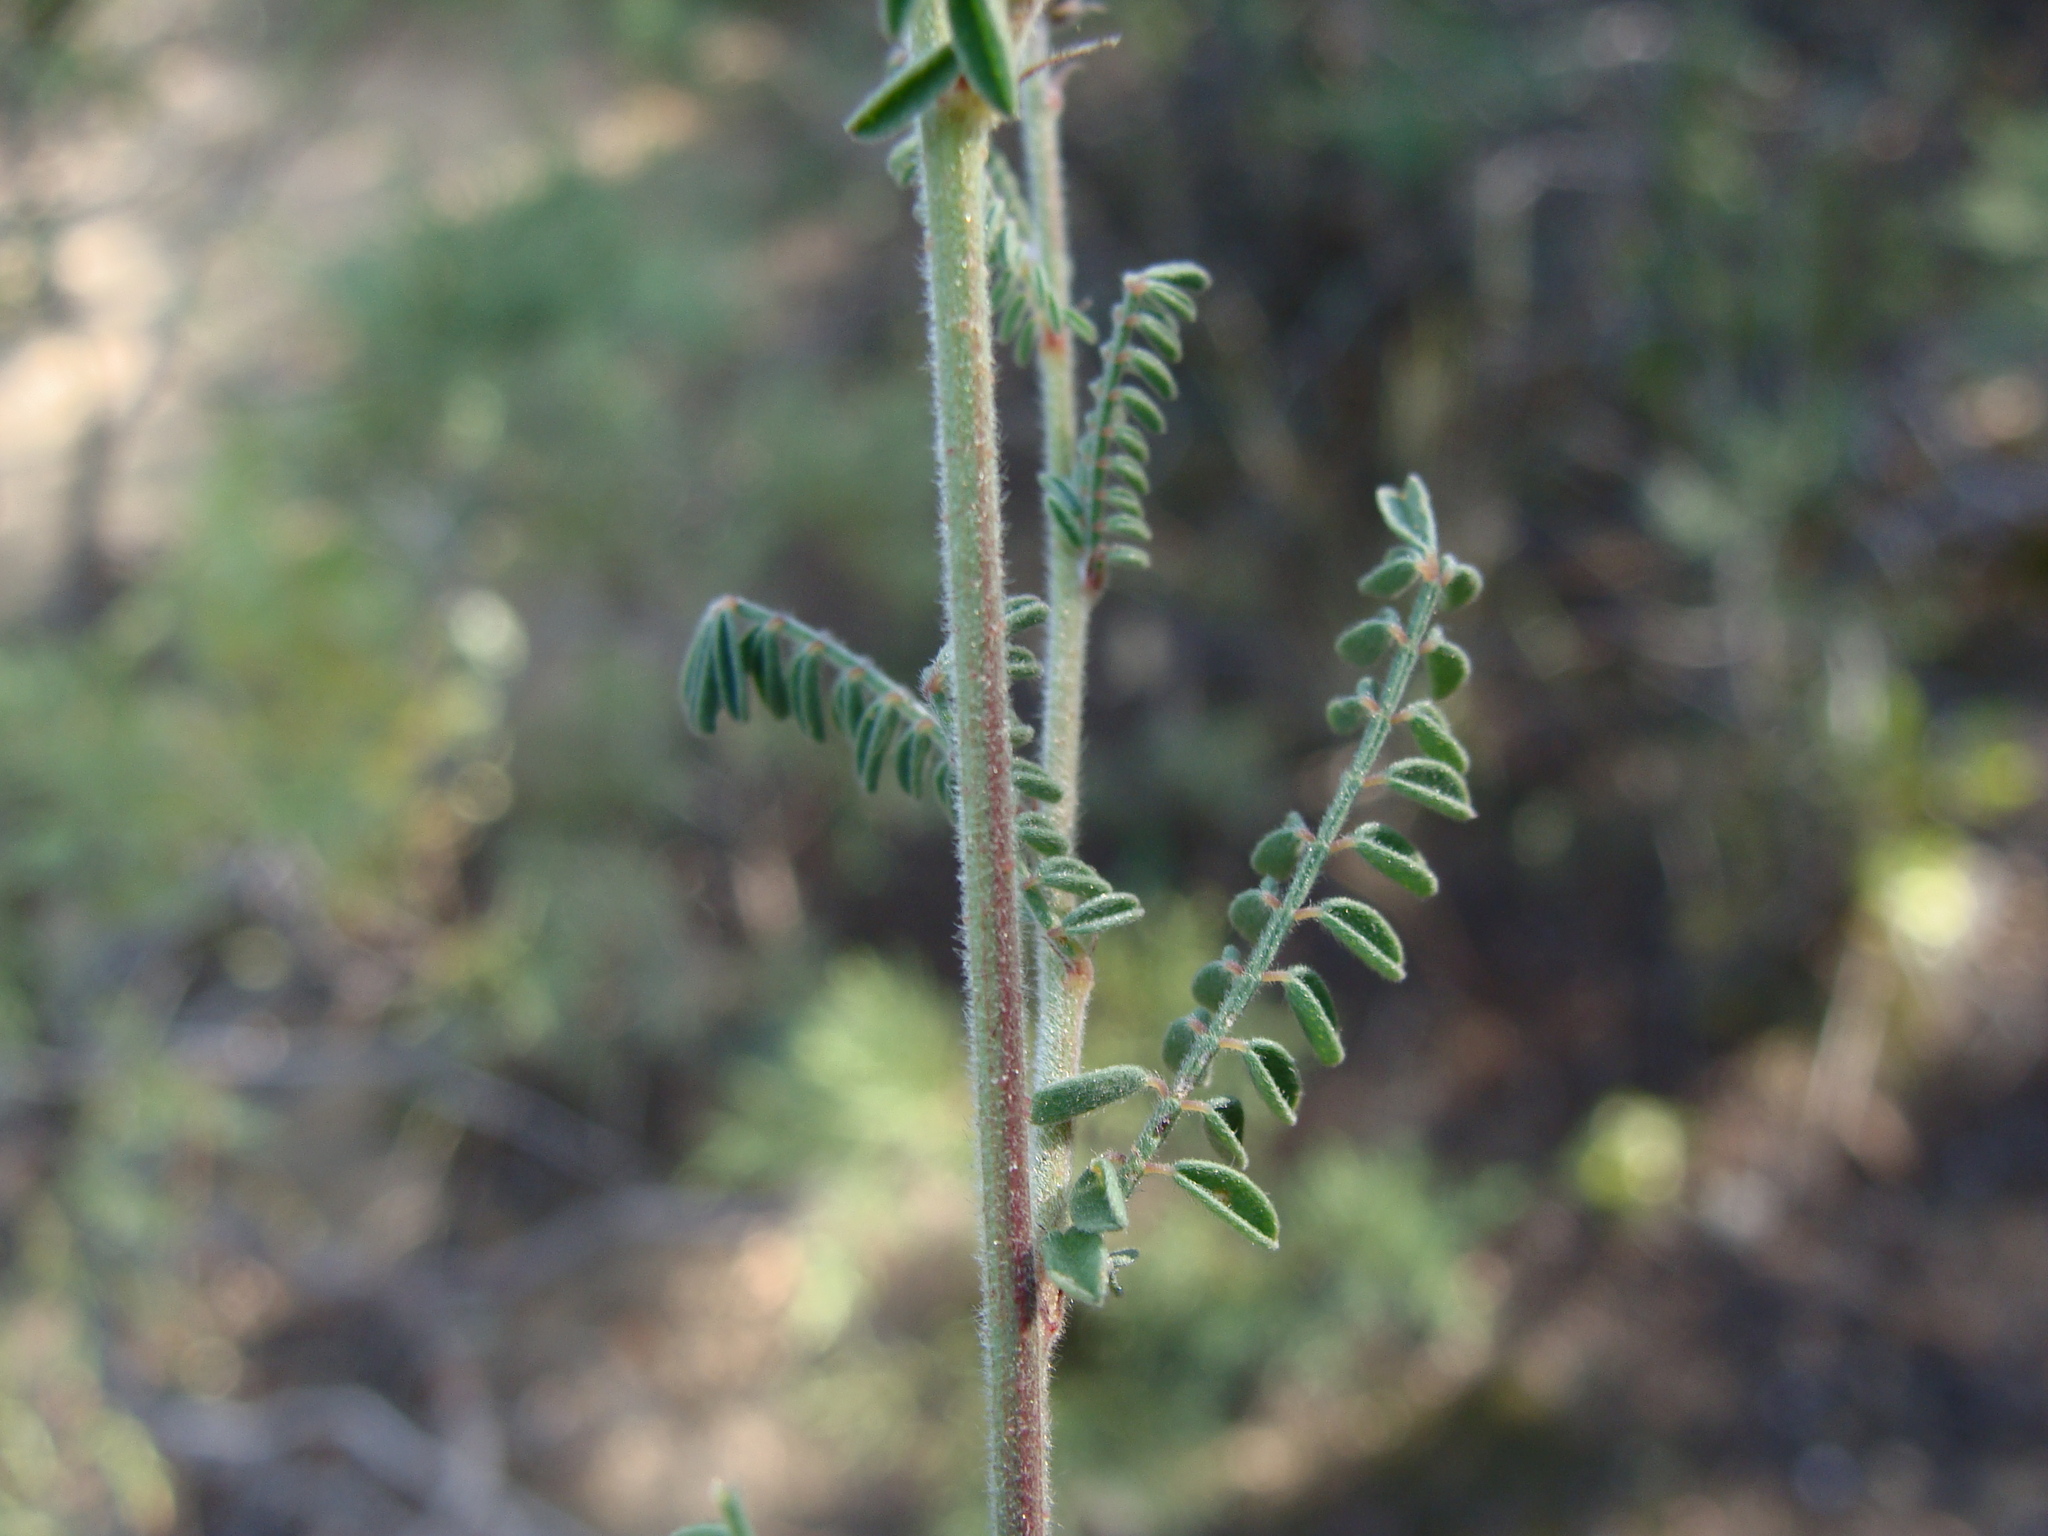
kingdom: Plantae
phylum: Tracheophyta
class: Magnoliopsida
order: Fabales
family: Fabaceae
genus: Dalea
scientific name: Dalea albiflora
